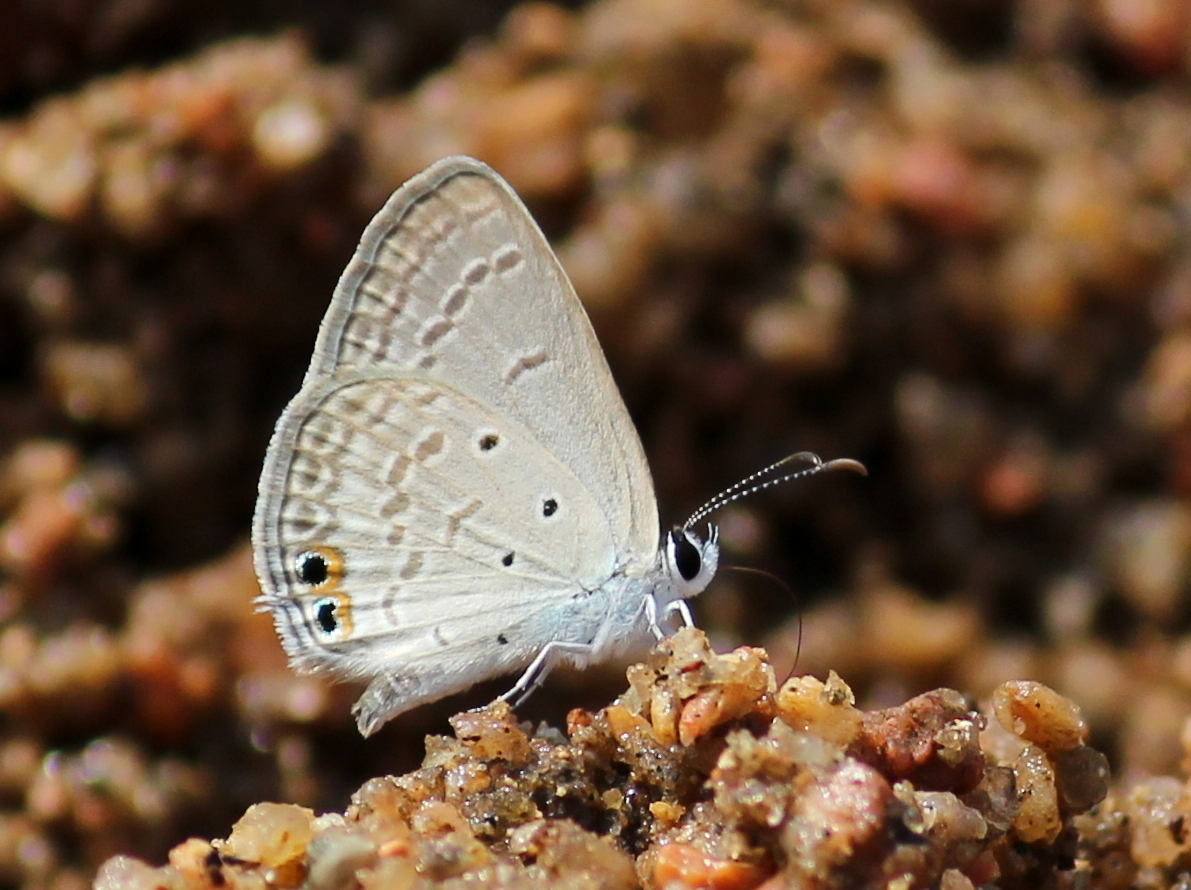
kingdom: Animalia
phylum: Arthropoda
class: Insecta
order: Lepidoptera
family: Lycaenidae
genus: Euchrysops
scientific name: Euchrysops cnejus
